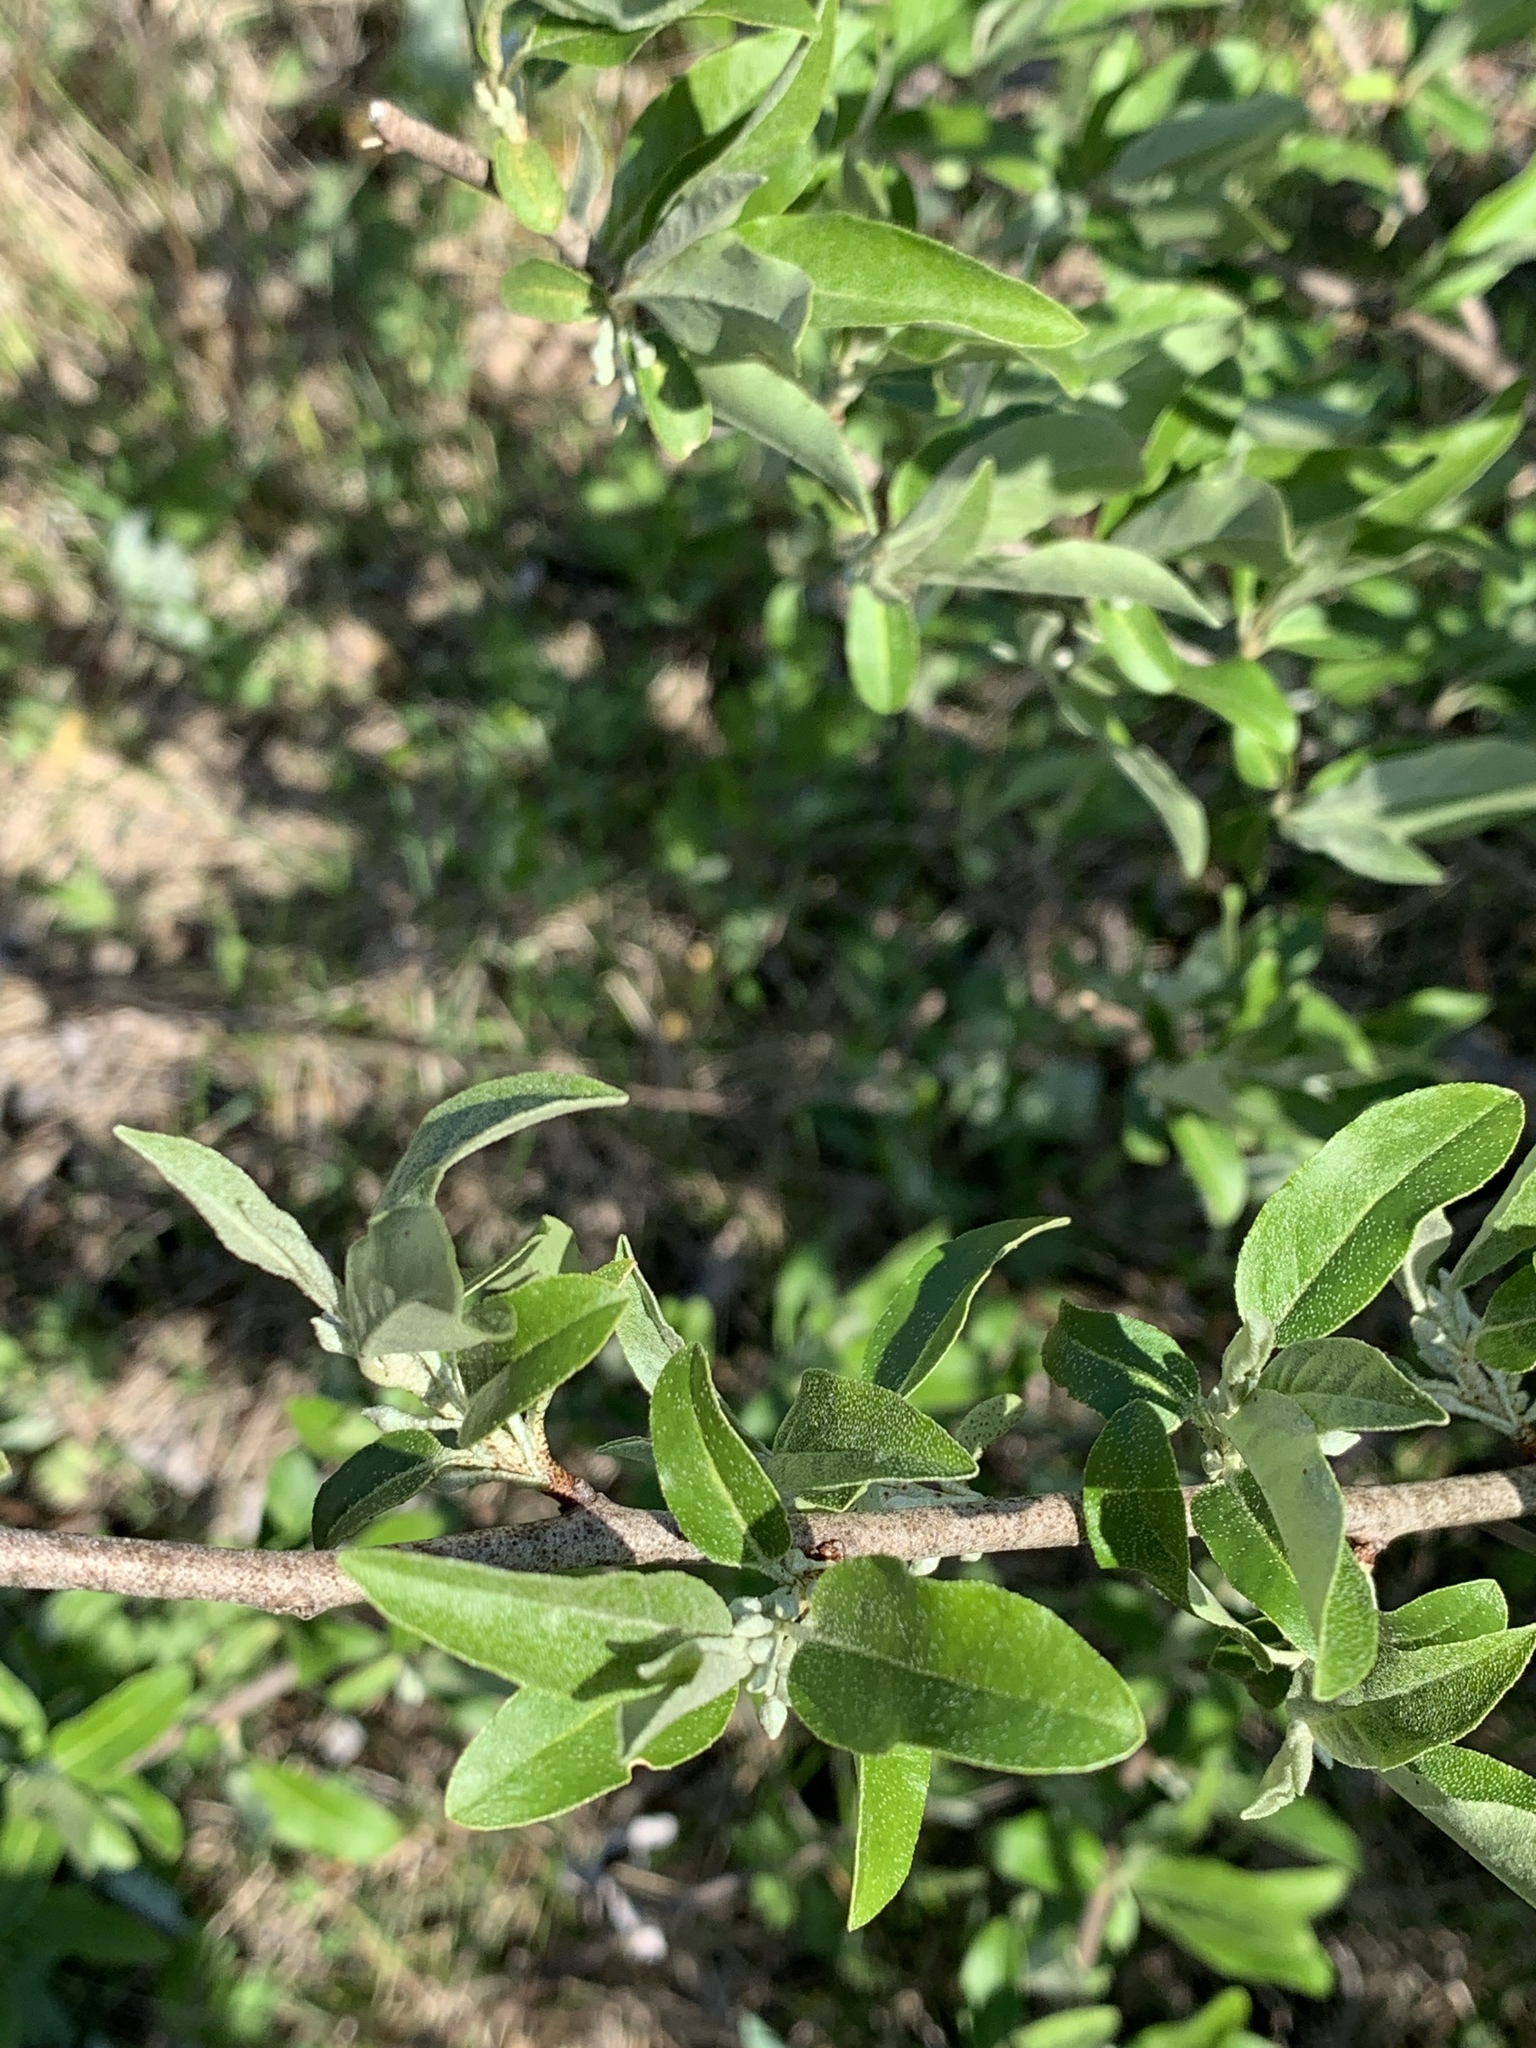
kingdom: Plantae
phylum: Tracheophyta
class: Magnoliopsida
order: Rosales
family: Elaeagnaceae
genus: Elaeagnus
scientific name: Elaeagnus umbellata
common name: Autumn olive
